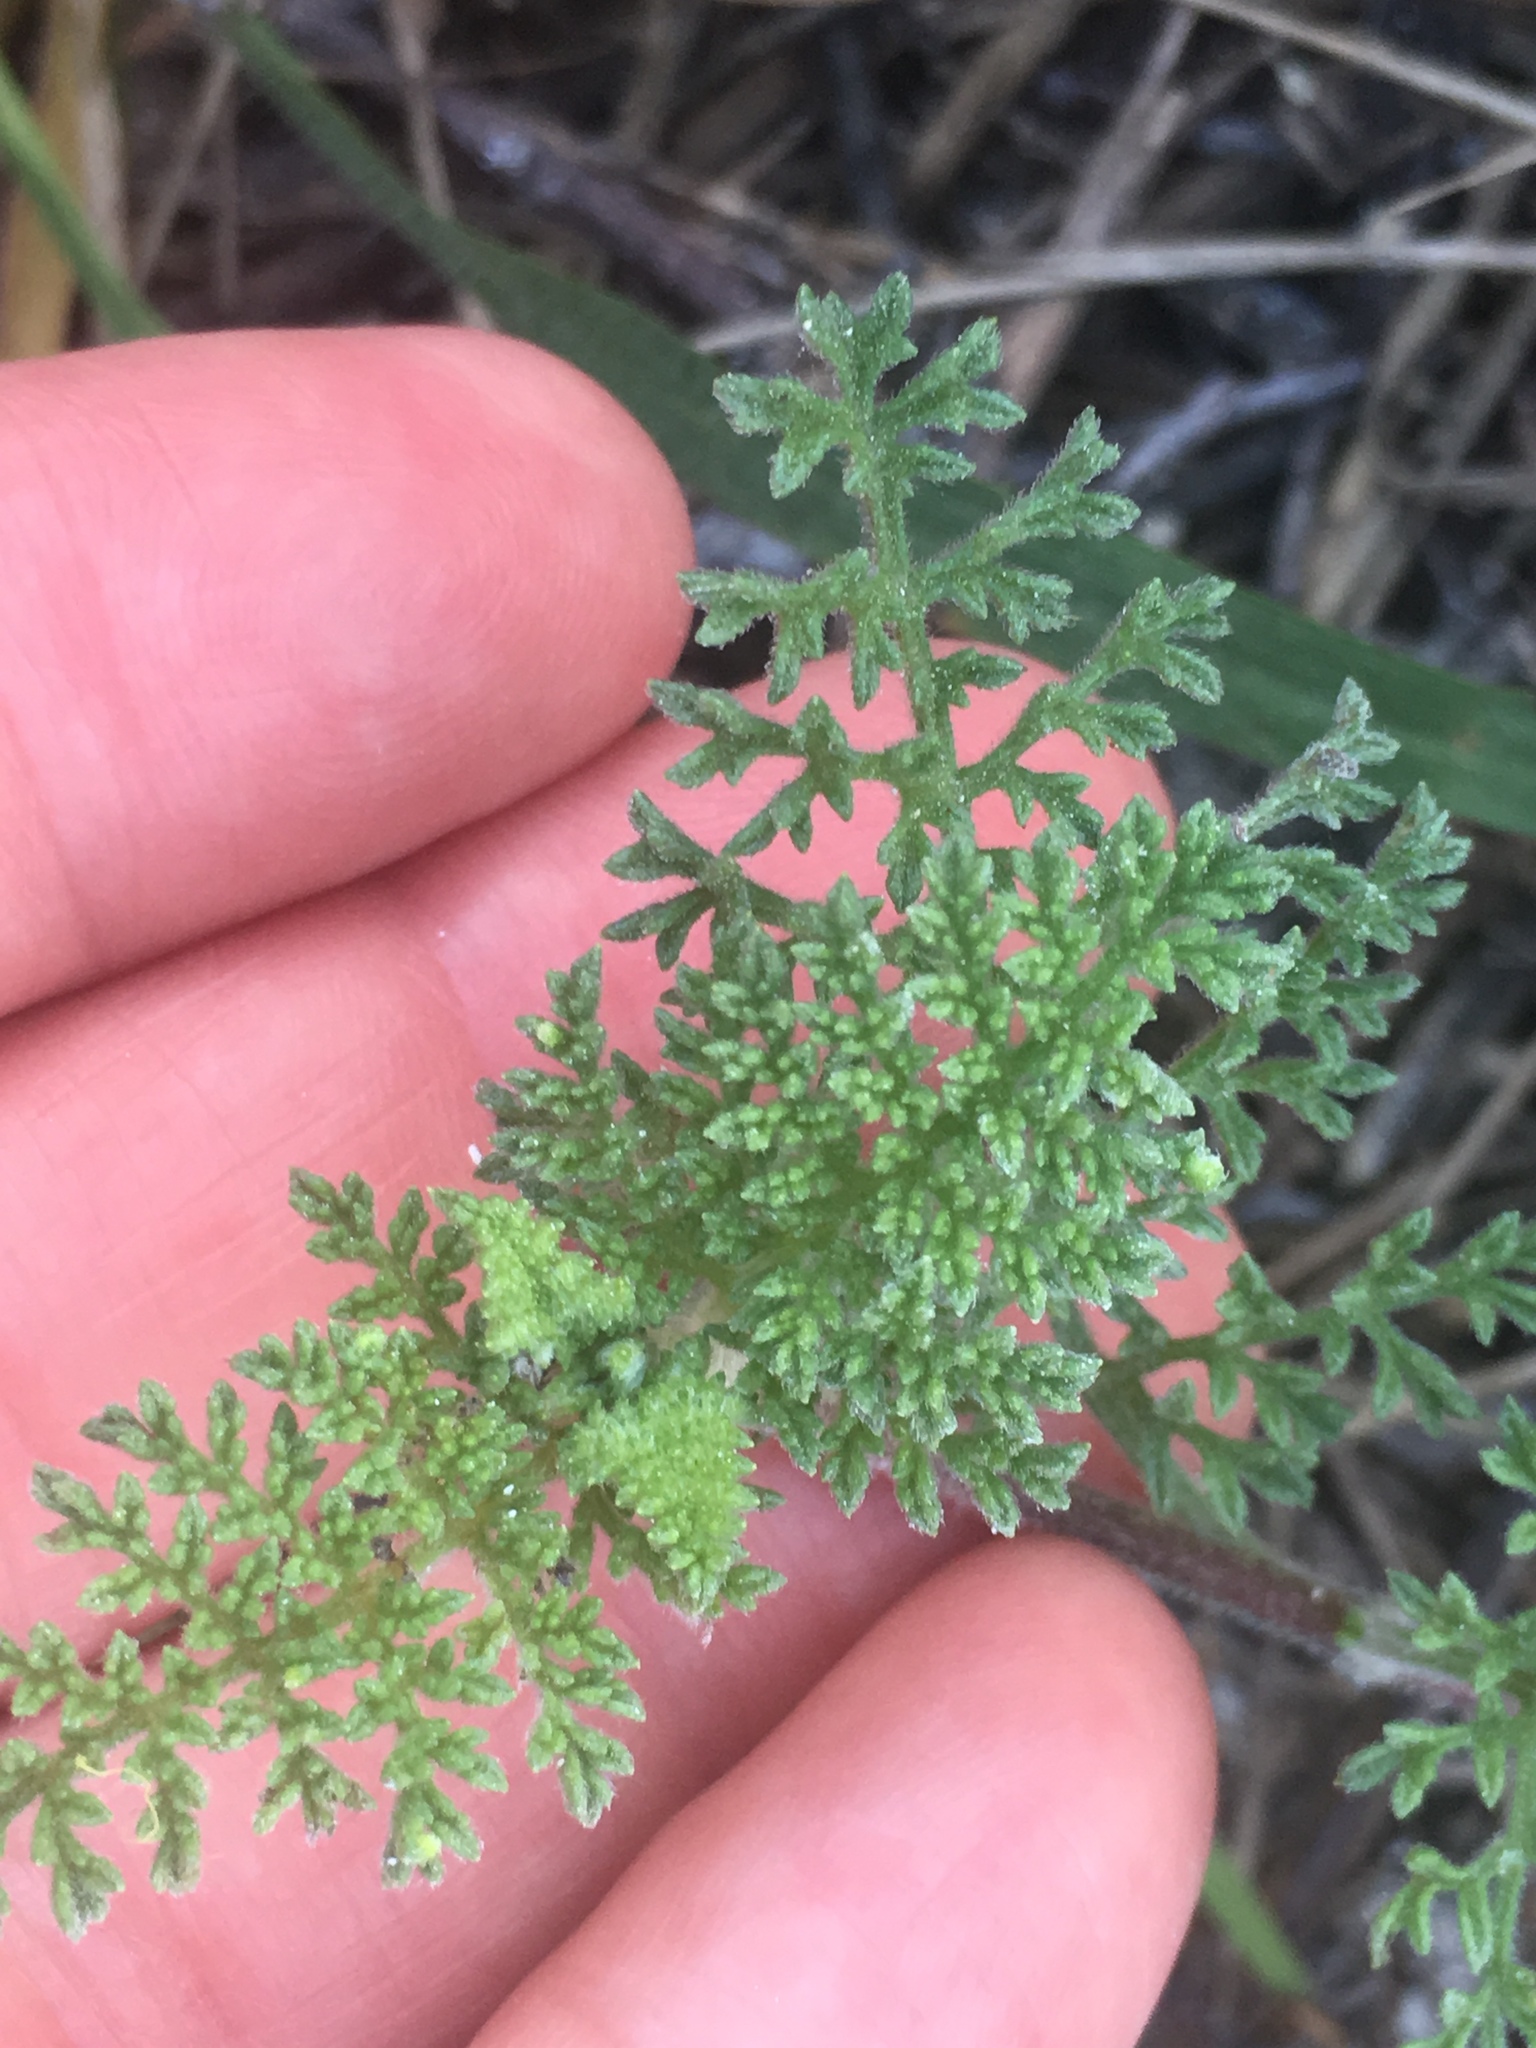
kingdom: Plantae
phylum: Tracheophyta
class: Magnoliopsida
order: Asterales
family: Asteraceae
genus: Ambrosia
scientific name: Ambrosia hispida
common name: Coastal ragweed
